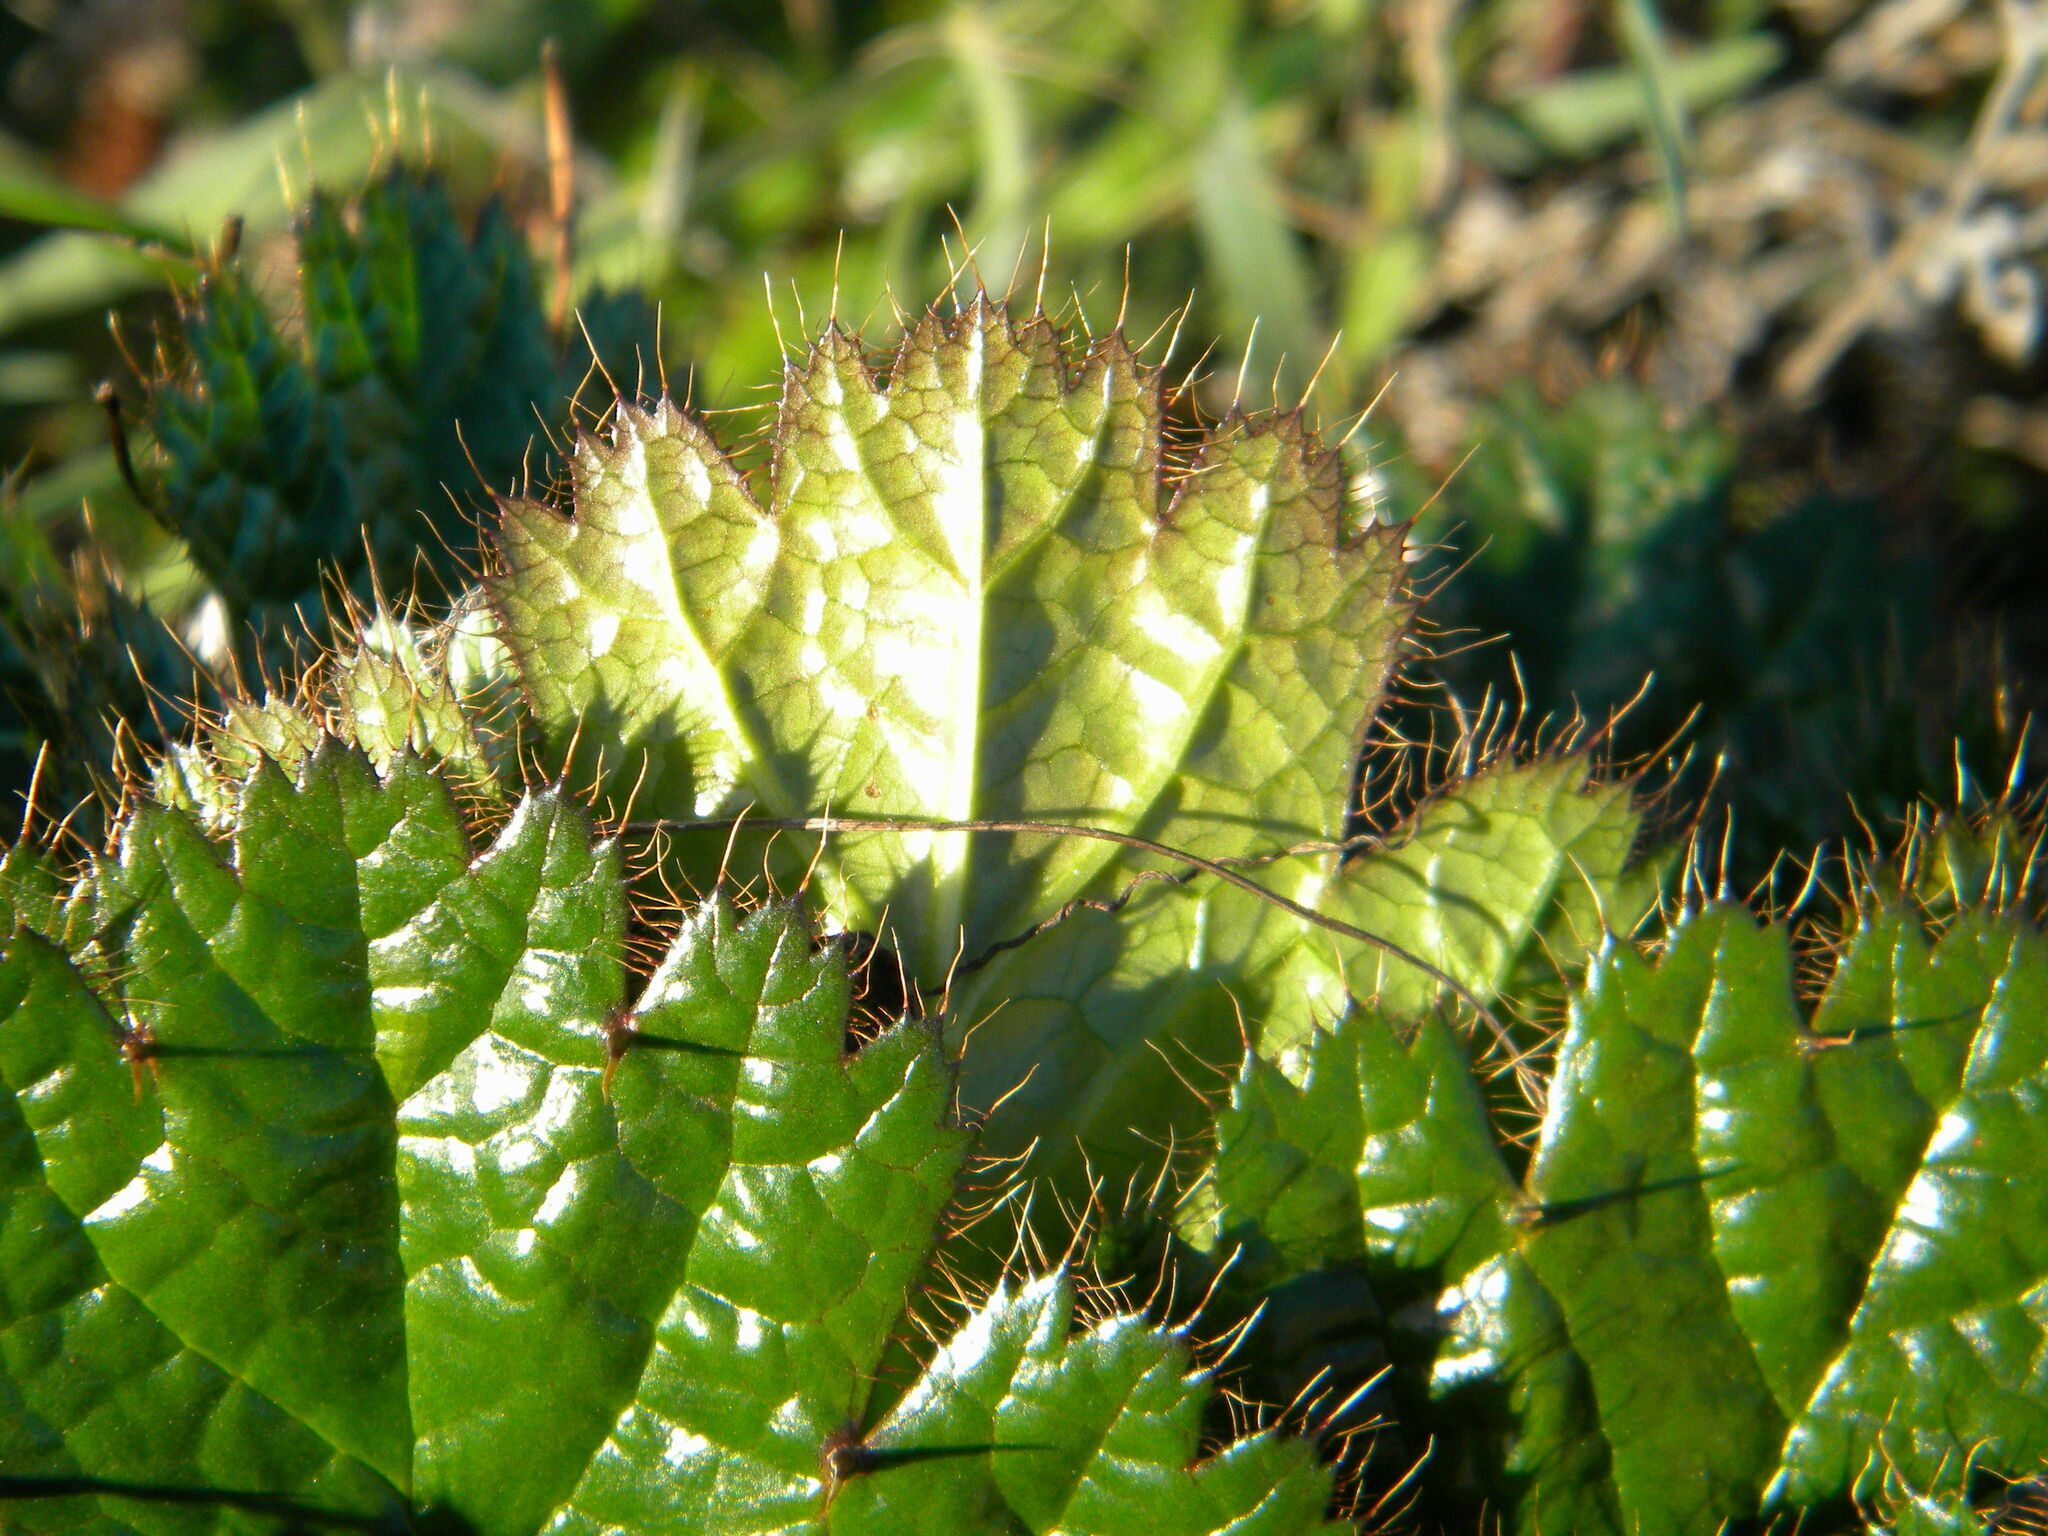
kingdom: Plantae
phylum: Tracheophyta
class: Magnoliopsida
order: Apiales
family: Apiaceae
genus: Arctopus
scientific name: Arctopus echinatus
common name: Platdoring
